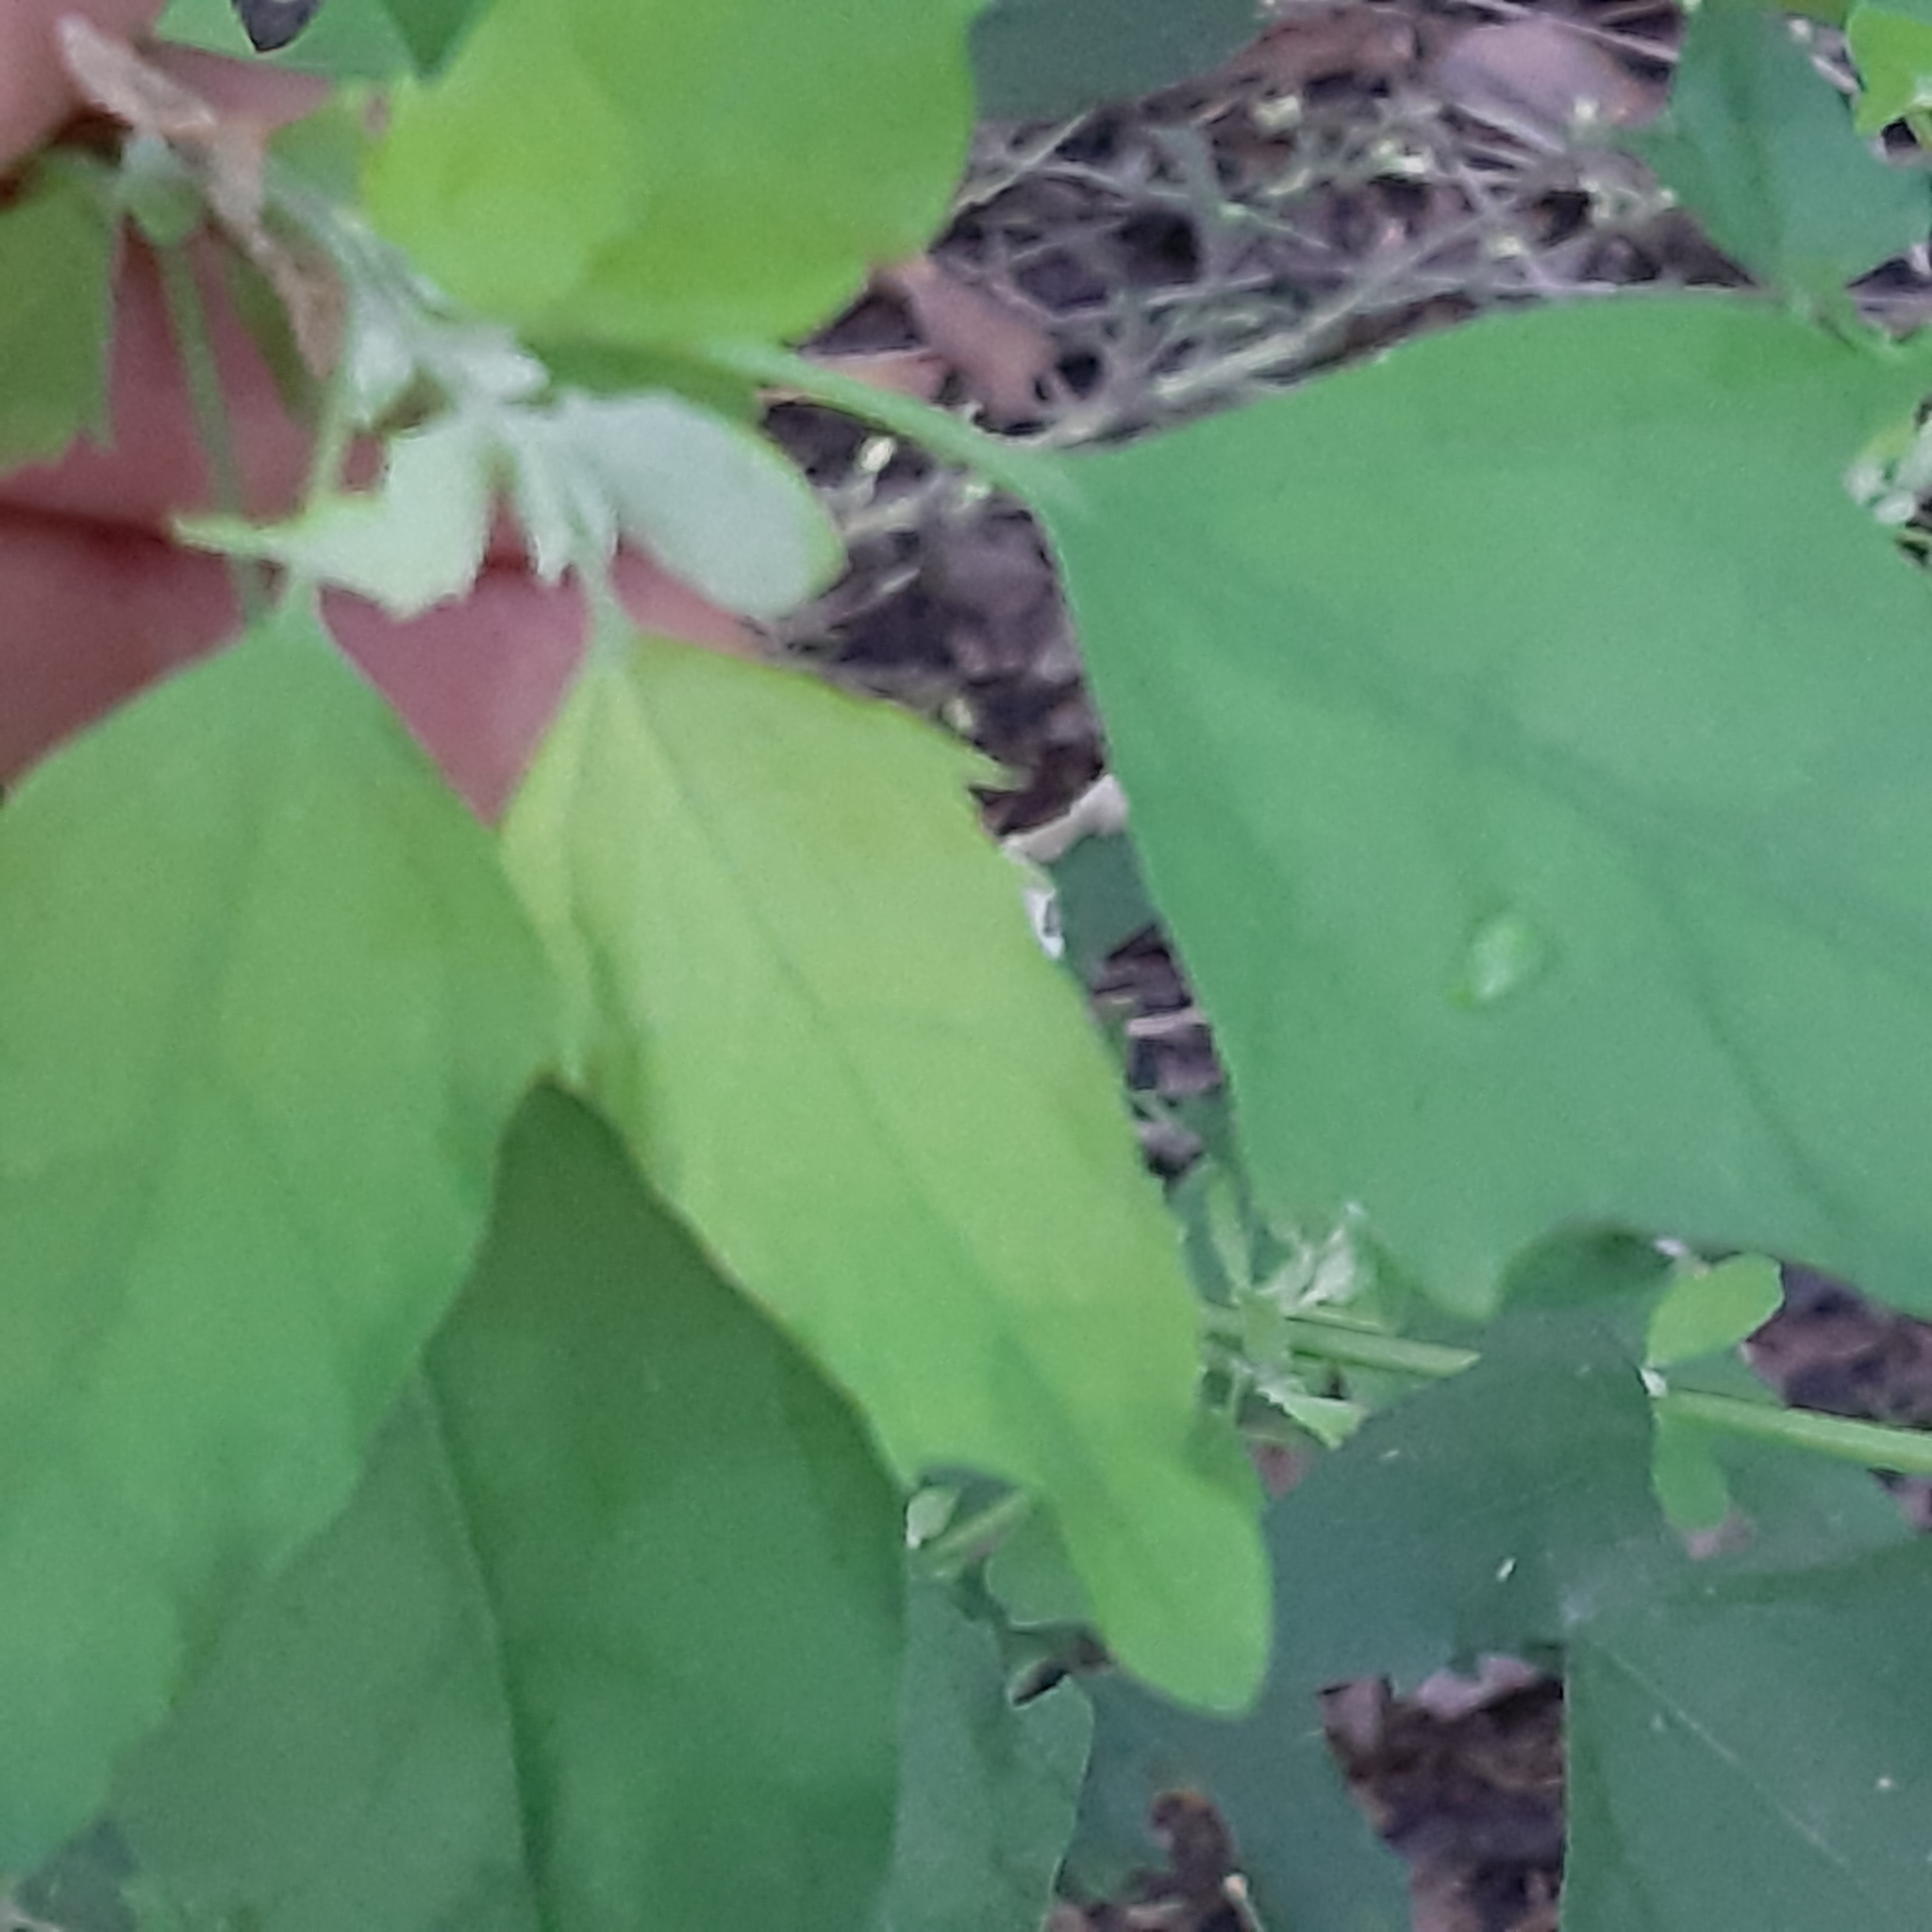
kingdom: Plantae
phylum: Tracheophyta
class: Magnoliopsida
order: Caryophyllales
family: Amaranthaceae
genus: Chenopodium
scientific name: Chenopodium album
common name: Fat-hen
